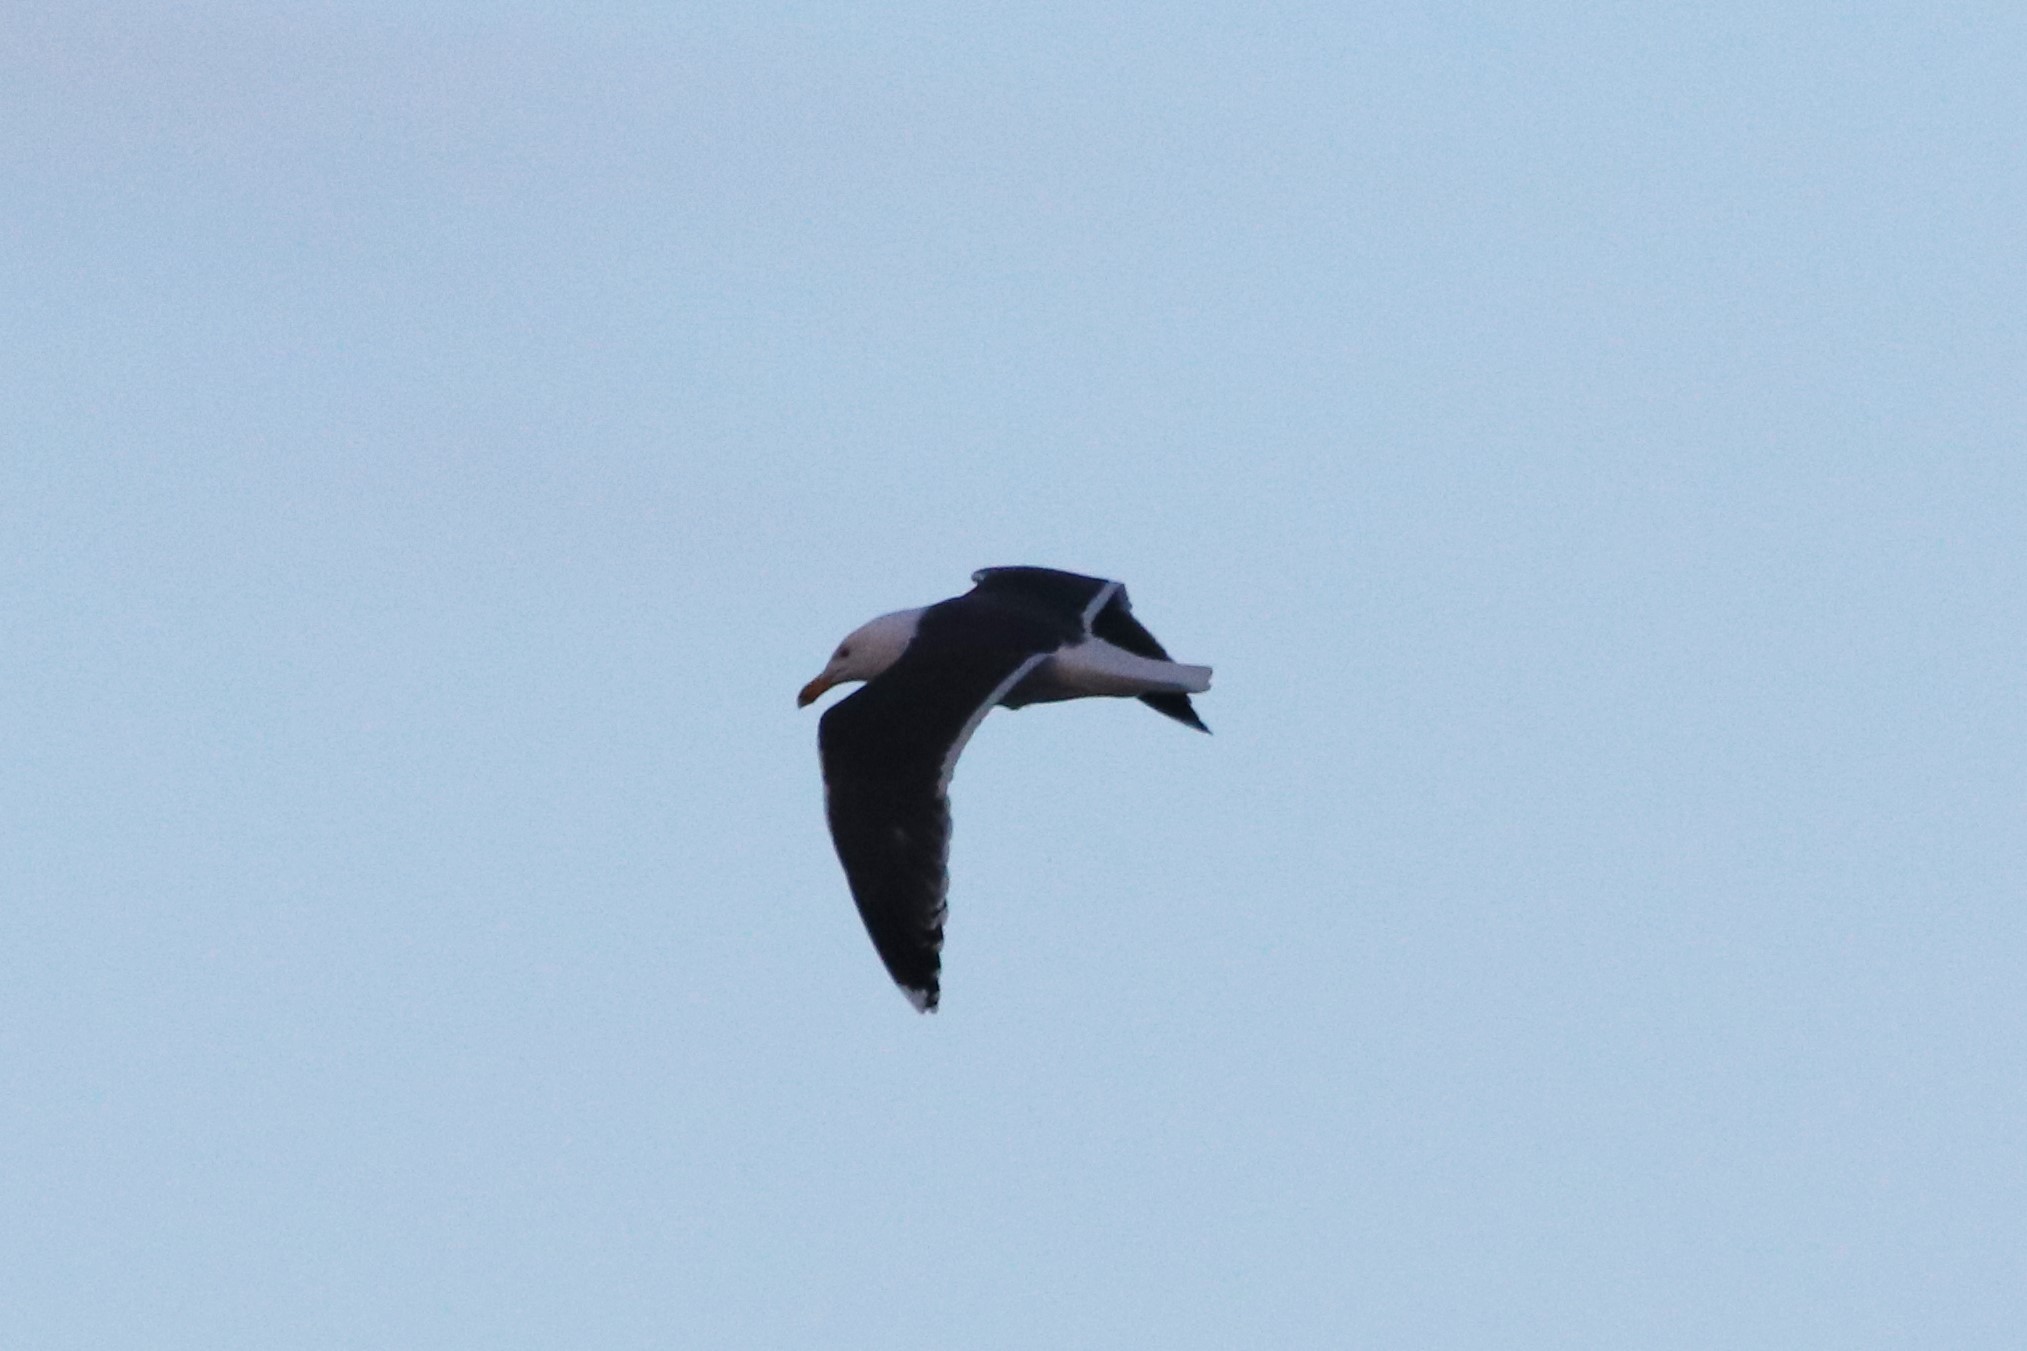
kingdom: Animalia
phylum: Chordata
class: Aves
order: Charadriiformes
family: Laridae
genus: Larus
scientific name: Larus marinus
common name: Great black-backed gull
